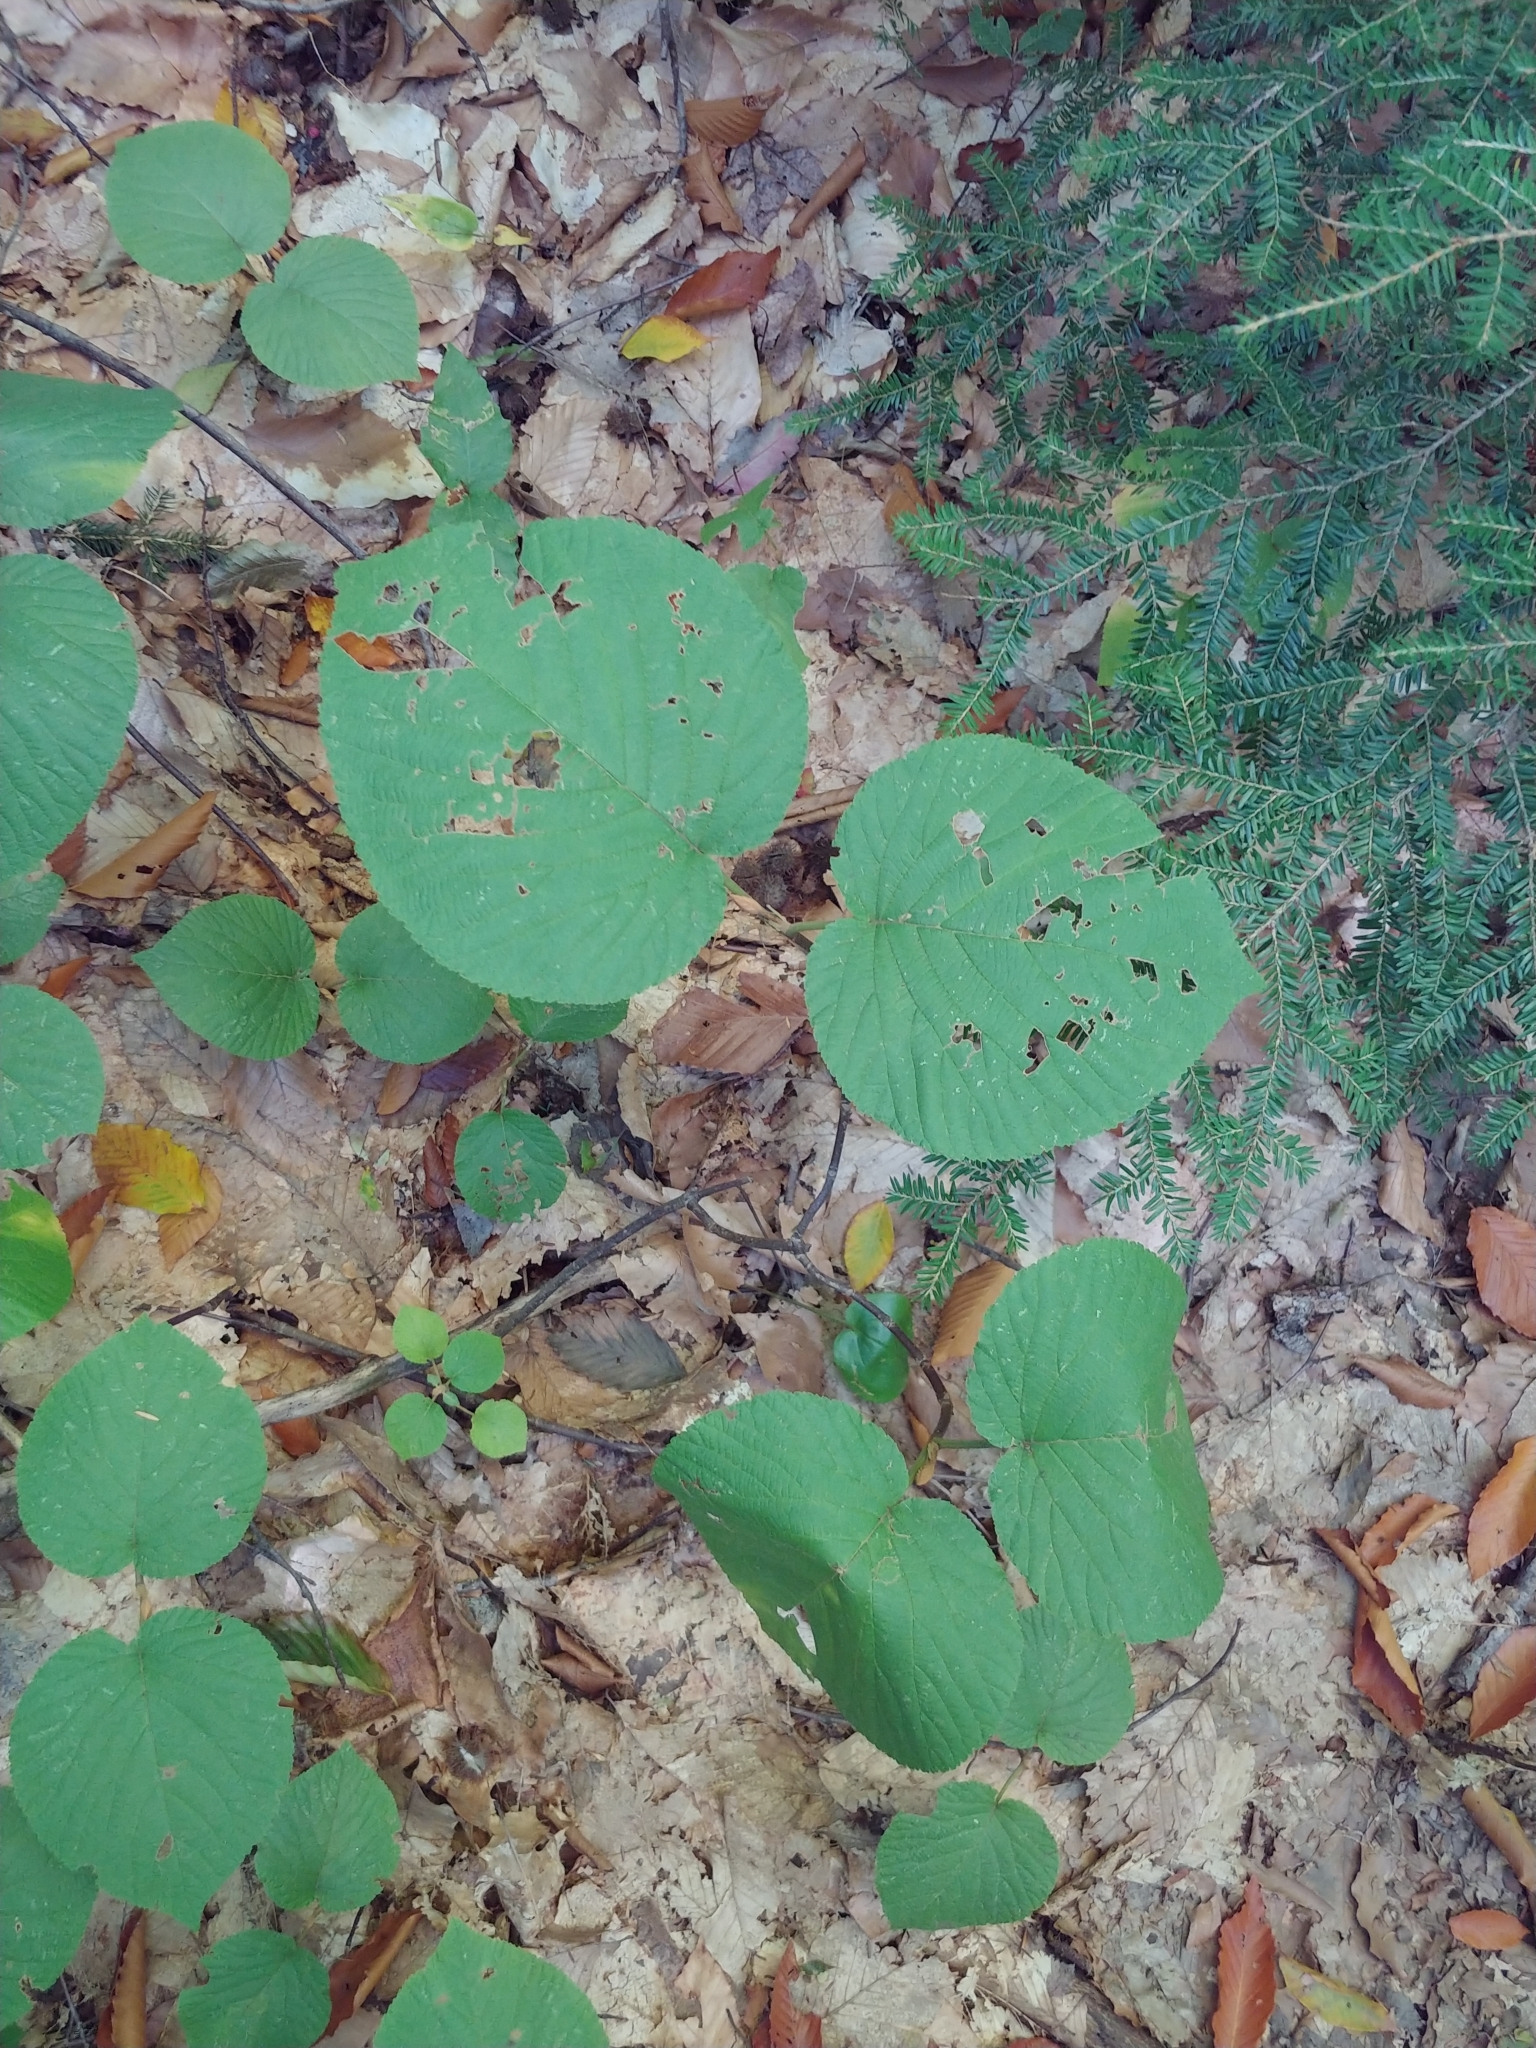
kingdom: Plantae
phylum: Tracheophyta
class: Magnoliopsida
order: Dipsacales
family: Viburnaceae
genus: Viburnum
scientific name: Viburnum lantanoides
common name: Hobblebush
